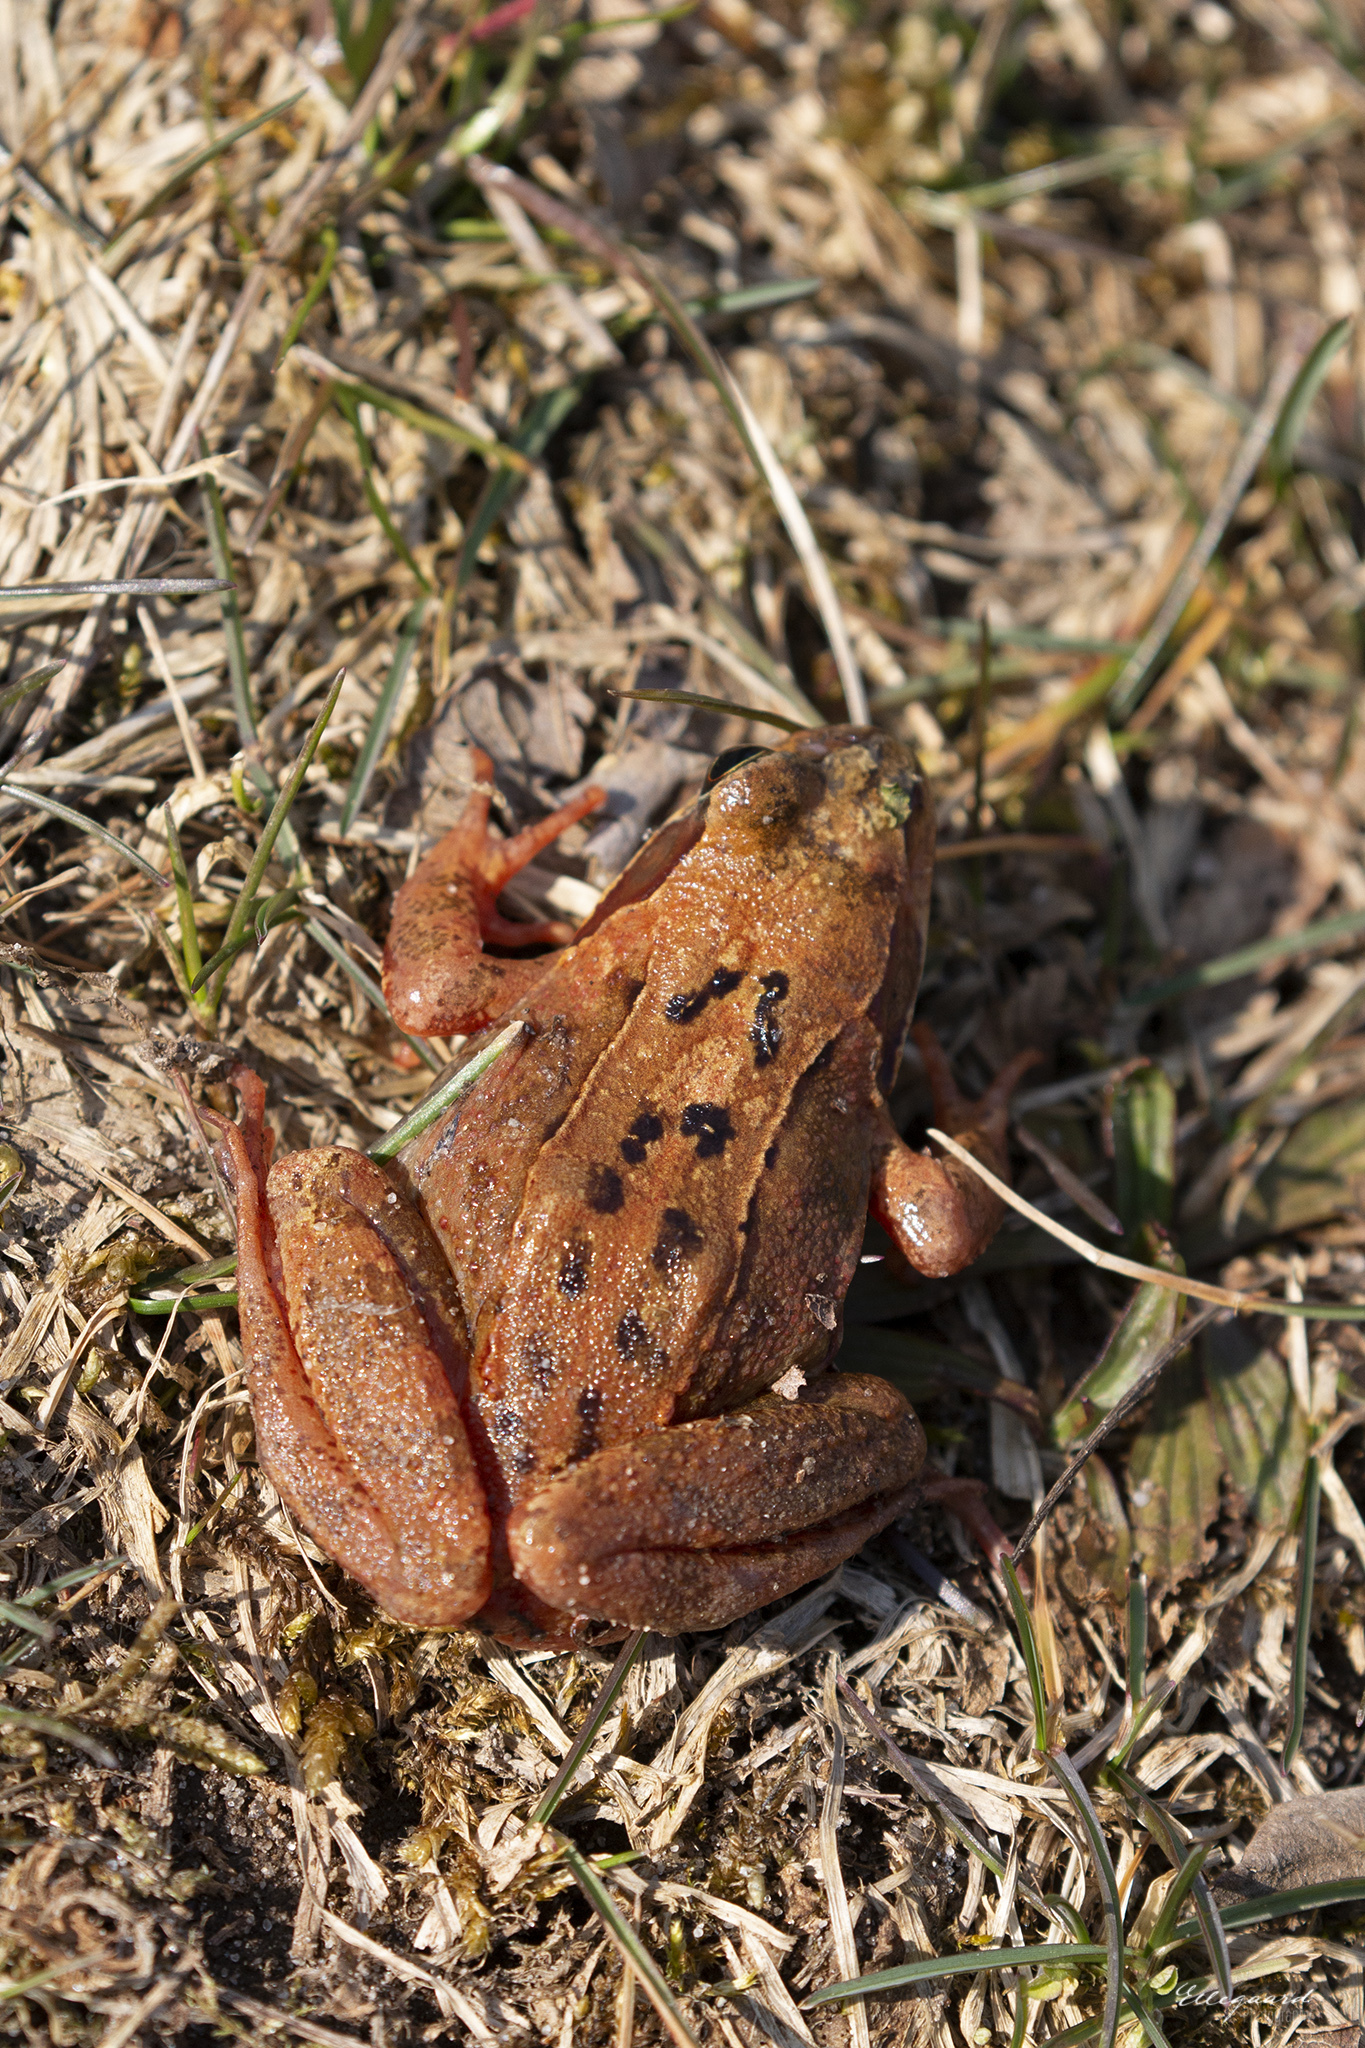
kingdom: Animalia
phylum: Chordata
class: Amphibia
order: Anura
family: Ranidae
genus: Rana
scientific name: Rana temporaria
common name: Common frog
